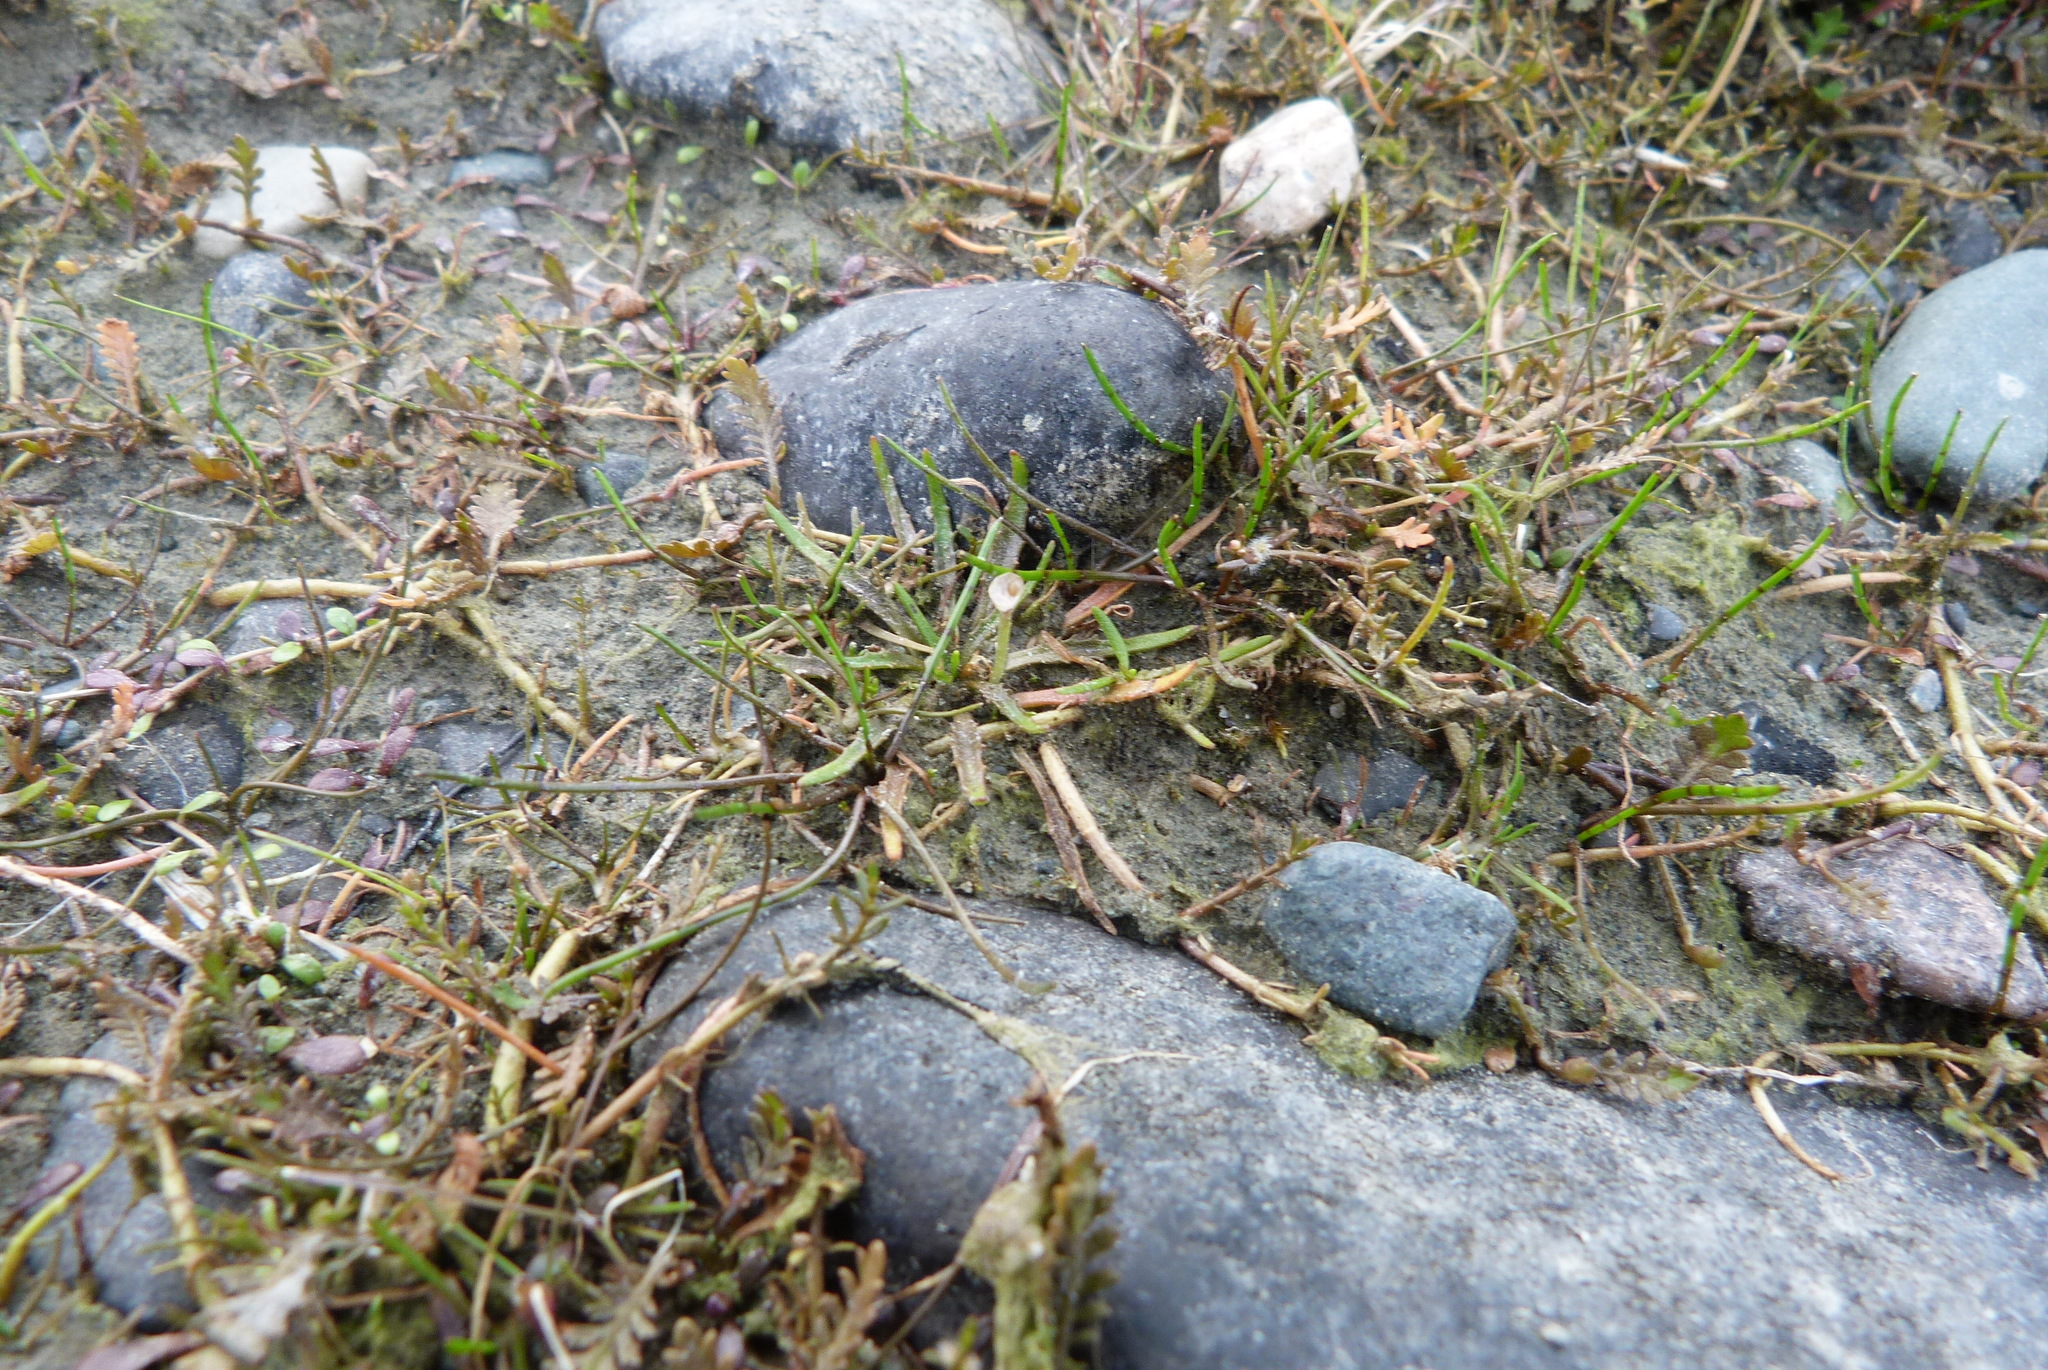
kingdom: Plantae
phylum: Tracheophyta
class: Magnoliopsida
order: Lamiales
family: Plantaginaceae
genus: Plantago
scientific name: Plantago triandra
